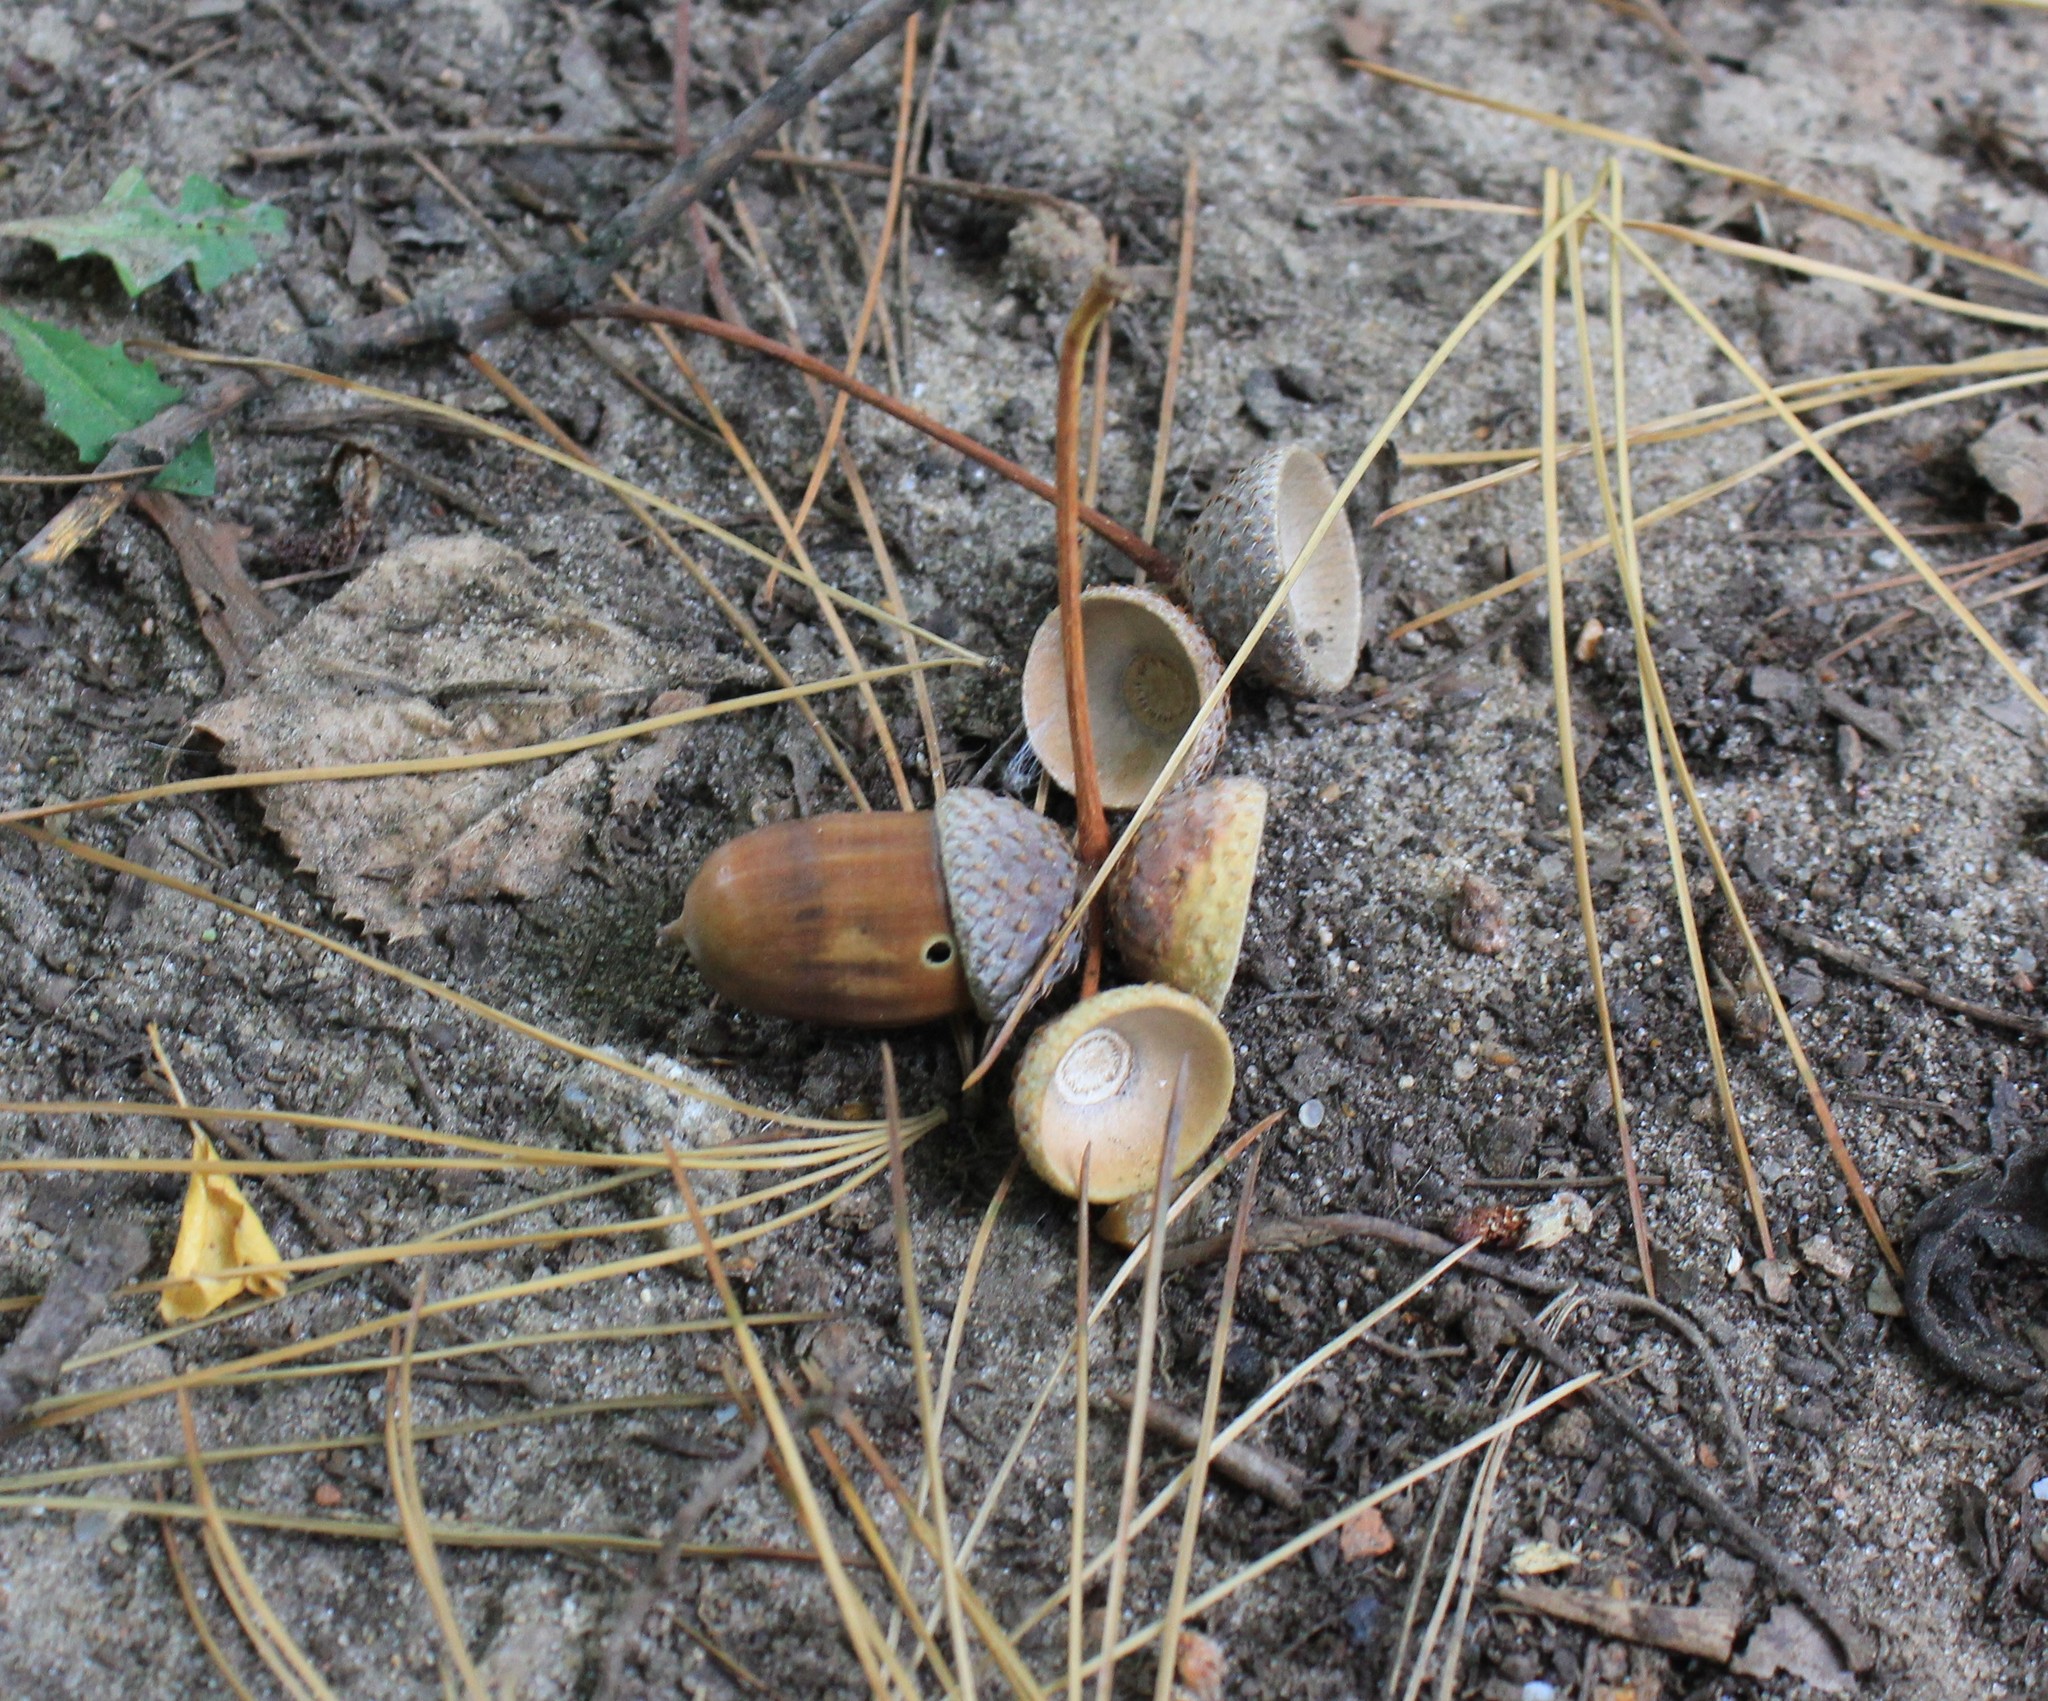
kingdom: Animalia
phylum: Arthropoda
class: Insecta
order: Coleoptera
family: Curculionidae
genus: Curculio
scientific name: Curculio glandium
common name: Acorn weevil
